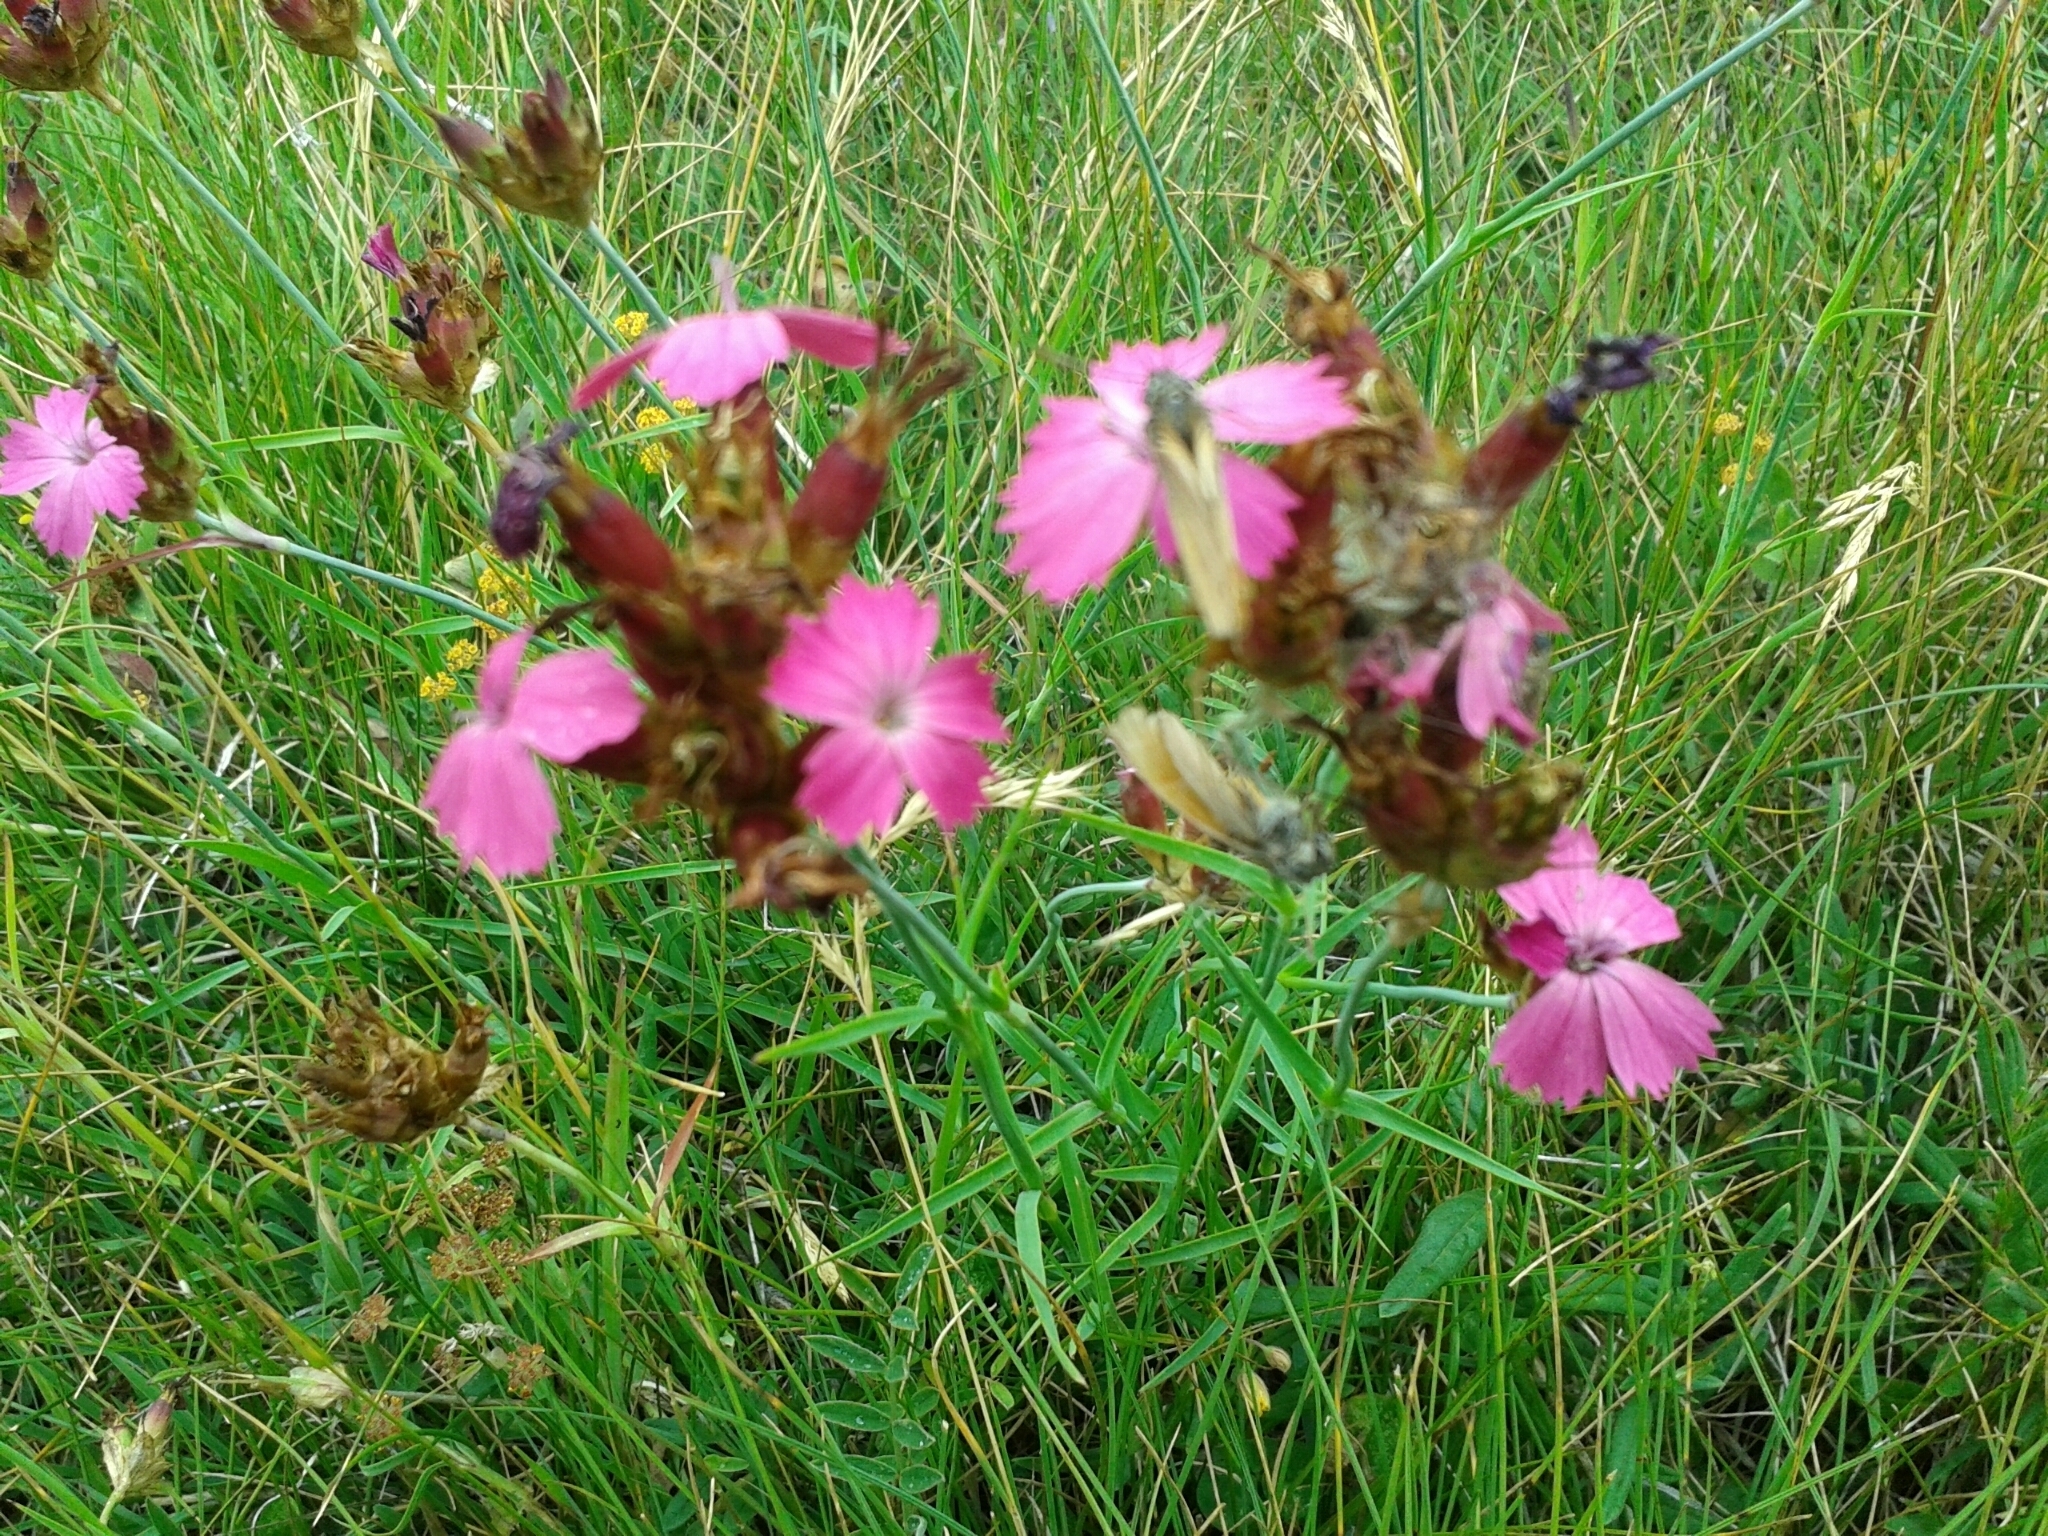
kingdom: Plantae
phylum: Tracheophyta
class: Magnoliopsida
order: Caryophyllales
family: Caryophyllaceae
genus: Dianthus
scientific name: Dianthus carthusianorum
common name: Carthusian pink
